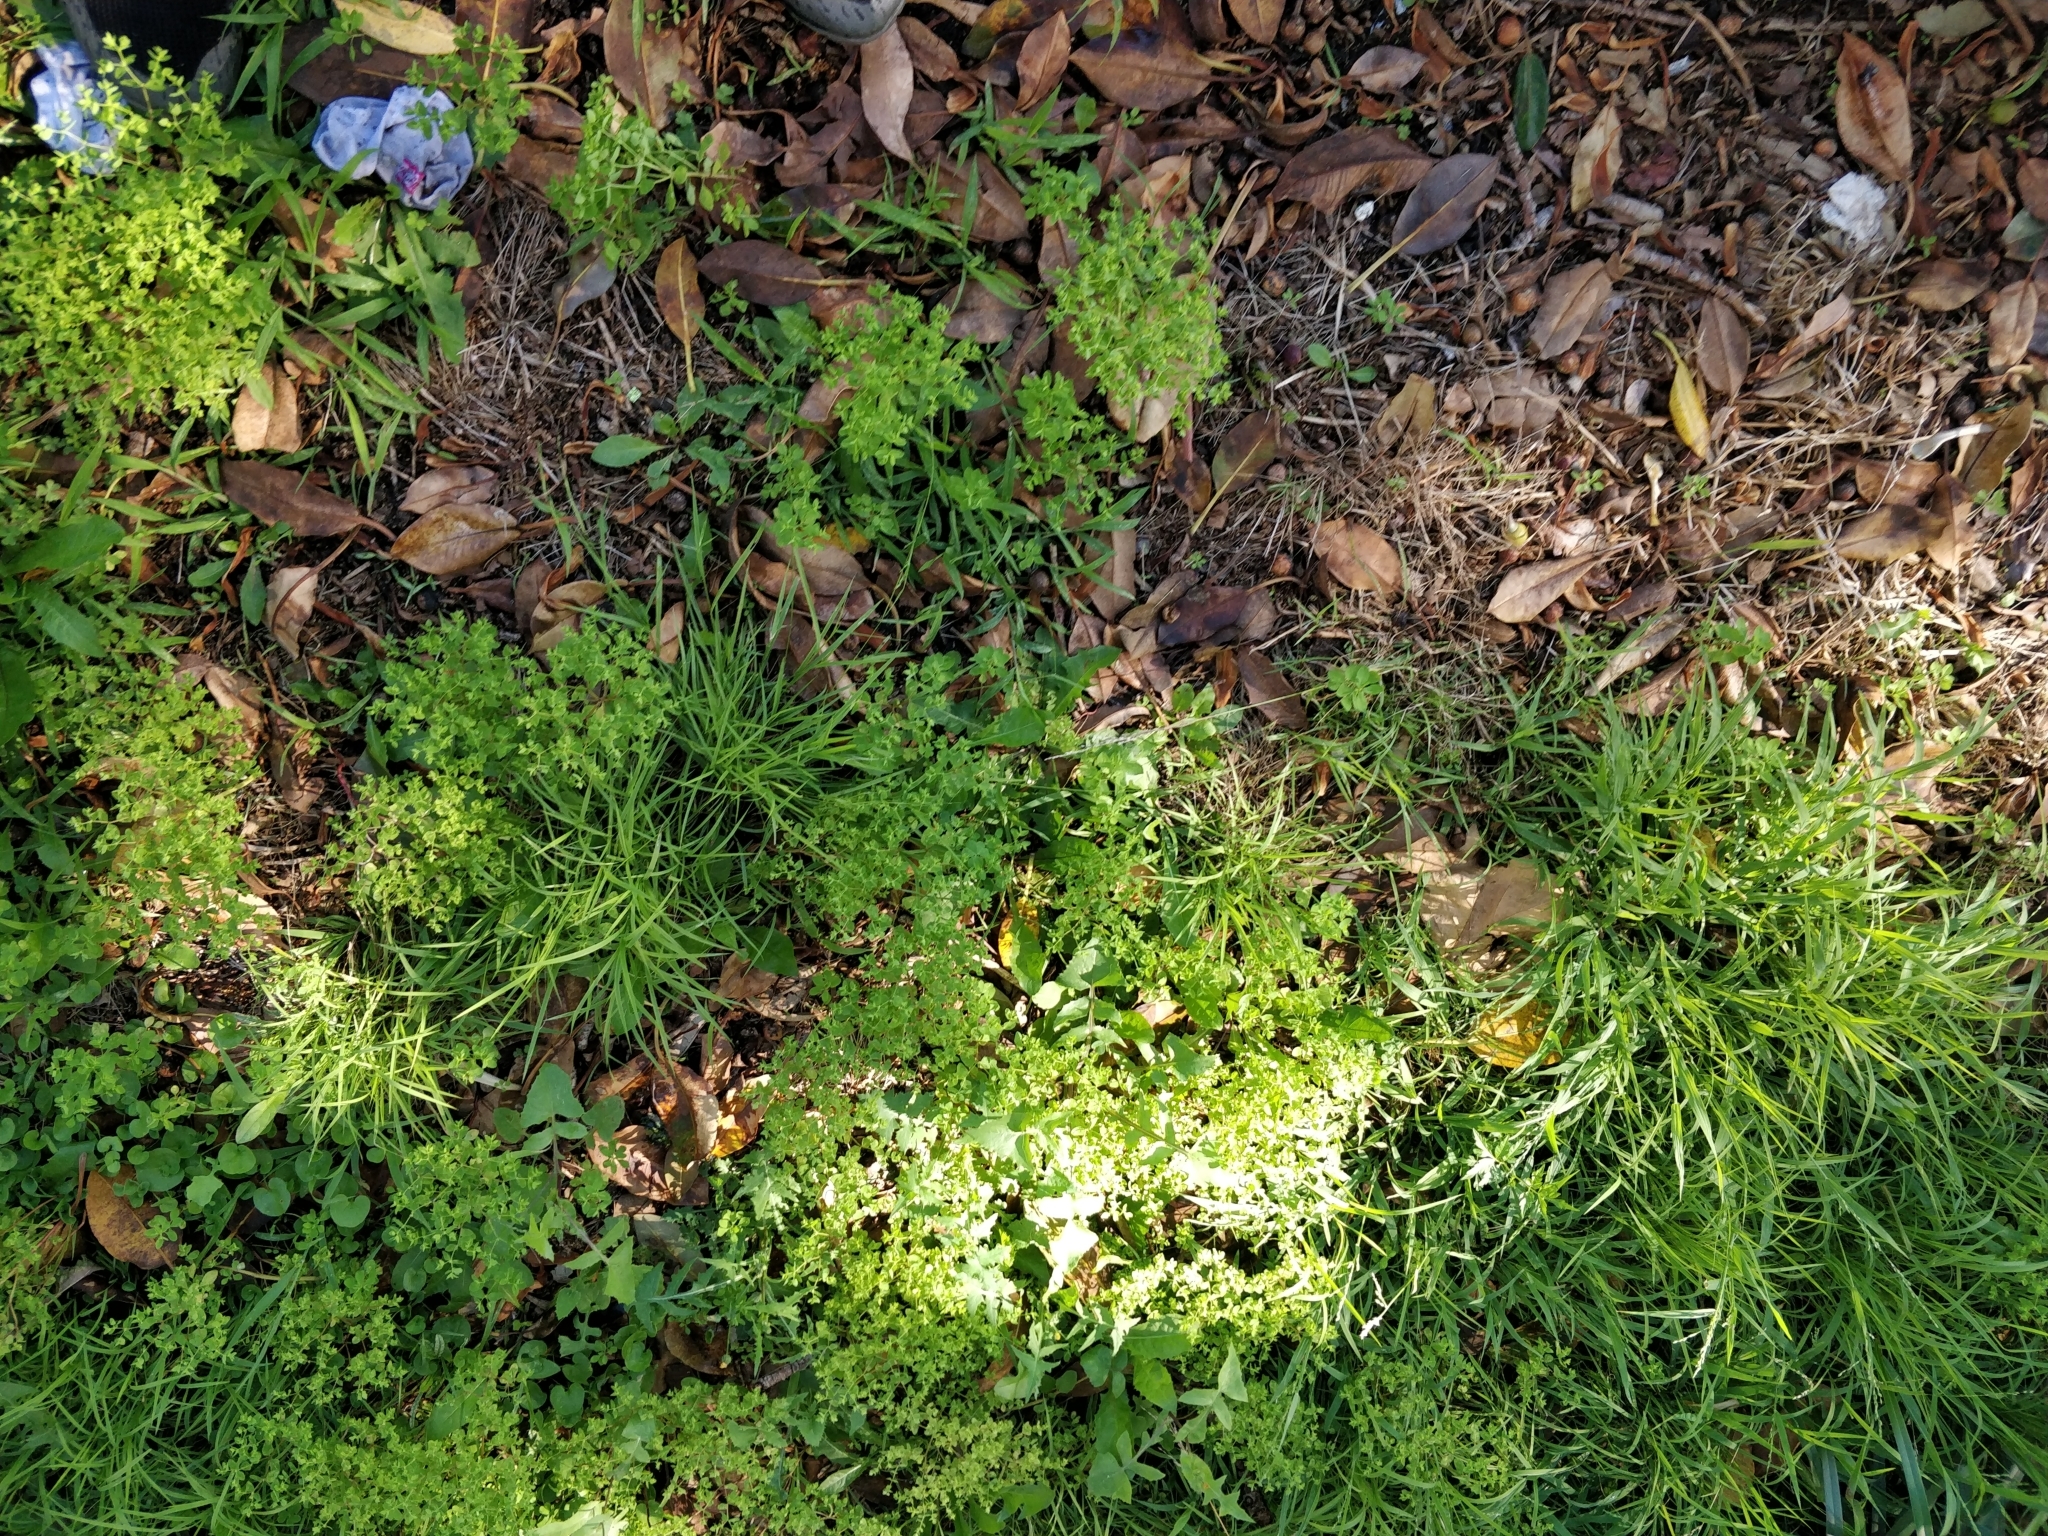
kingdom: Plantae
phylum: Tracheophyta
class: Magnoliopsida
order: Malpighiales
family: Euphorbiaceae
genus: Euphorbia
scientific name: Euphorbia peplus
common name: Petty spurge
